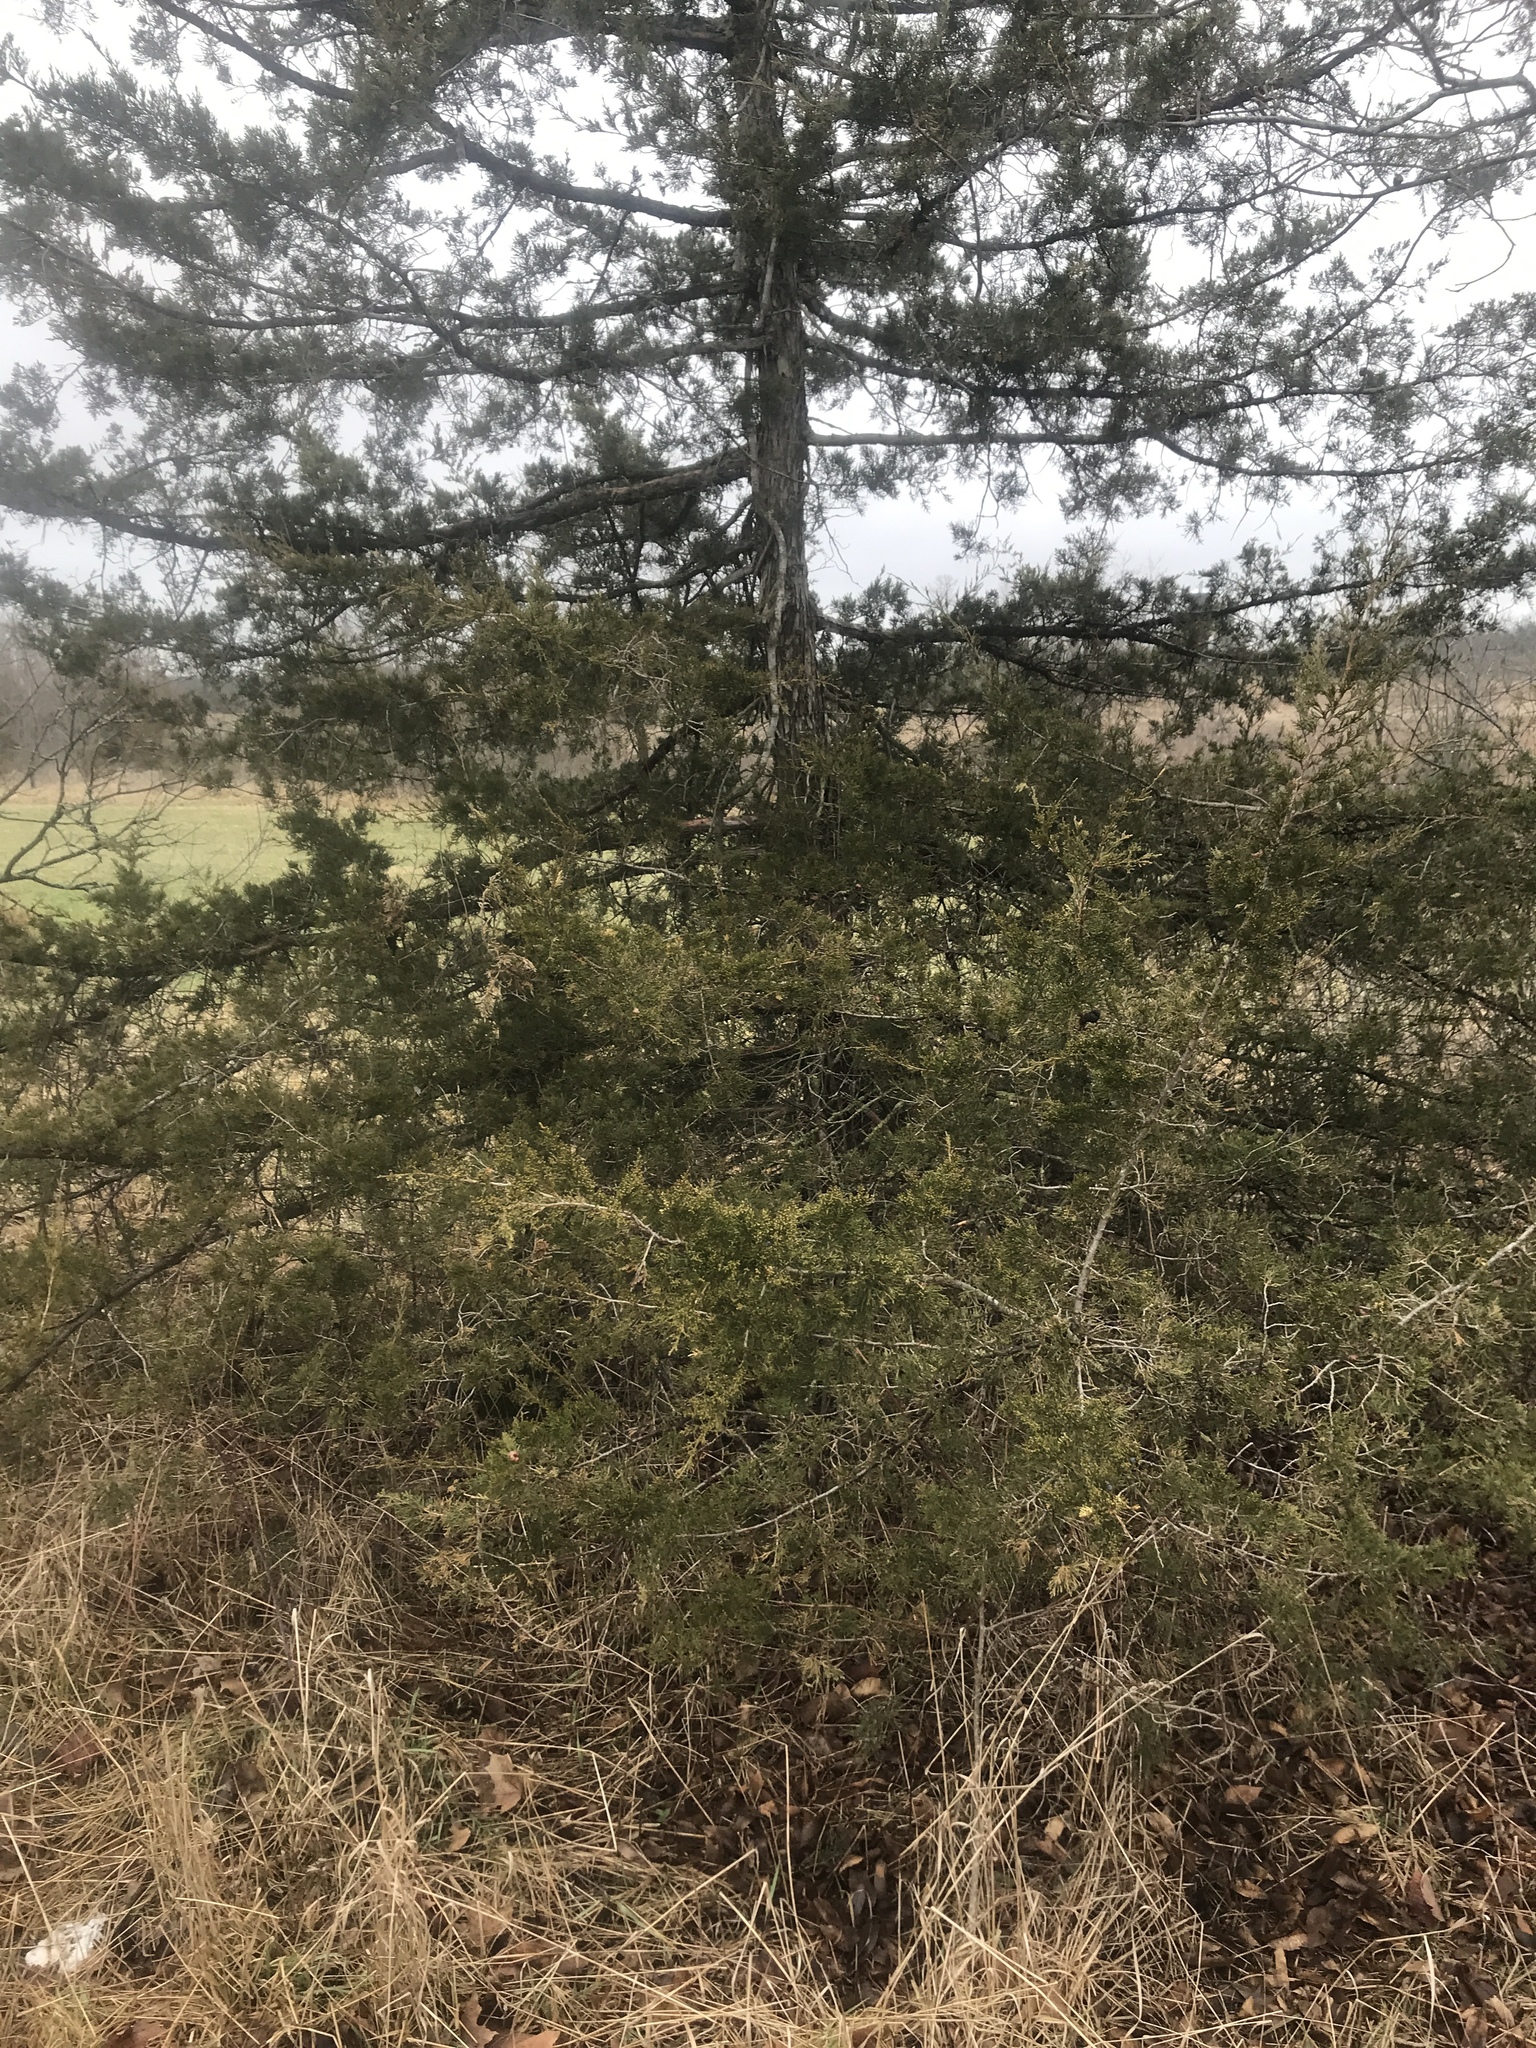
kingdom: Plantae
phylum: Tracheophyta
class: Pinopsida
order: Pinales
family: Cupressaceae
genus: Juniperus
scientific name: Juniperus virginiana
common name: Red juniper
